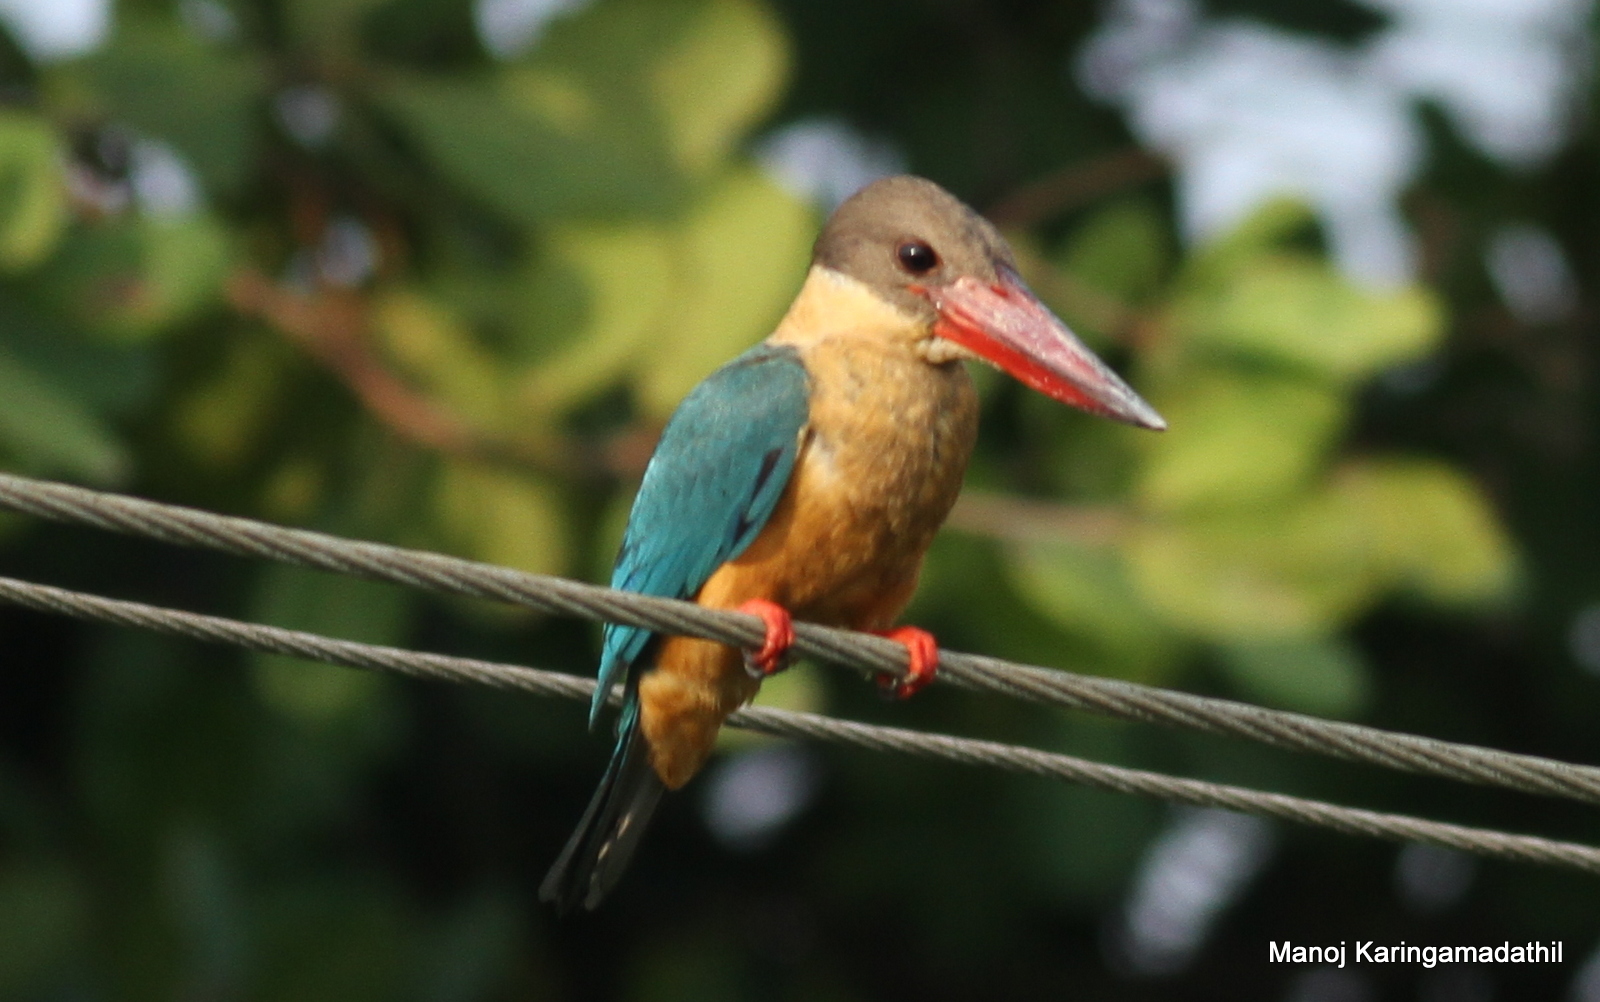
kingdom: Animalia
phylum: Chordata
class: Aves
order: Coraciiformes
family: Alcedinidae
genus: Pelargopsis
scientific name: Pelargopsis capensis
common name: Stork-billed kingfisher
